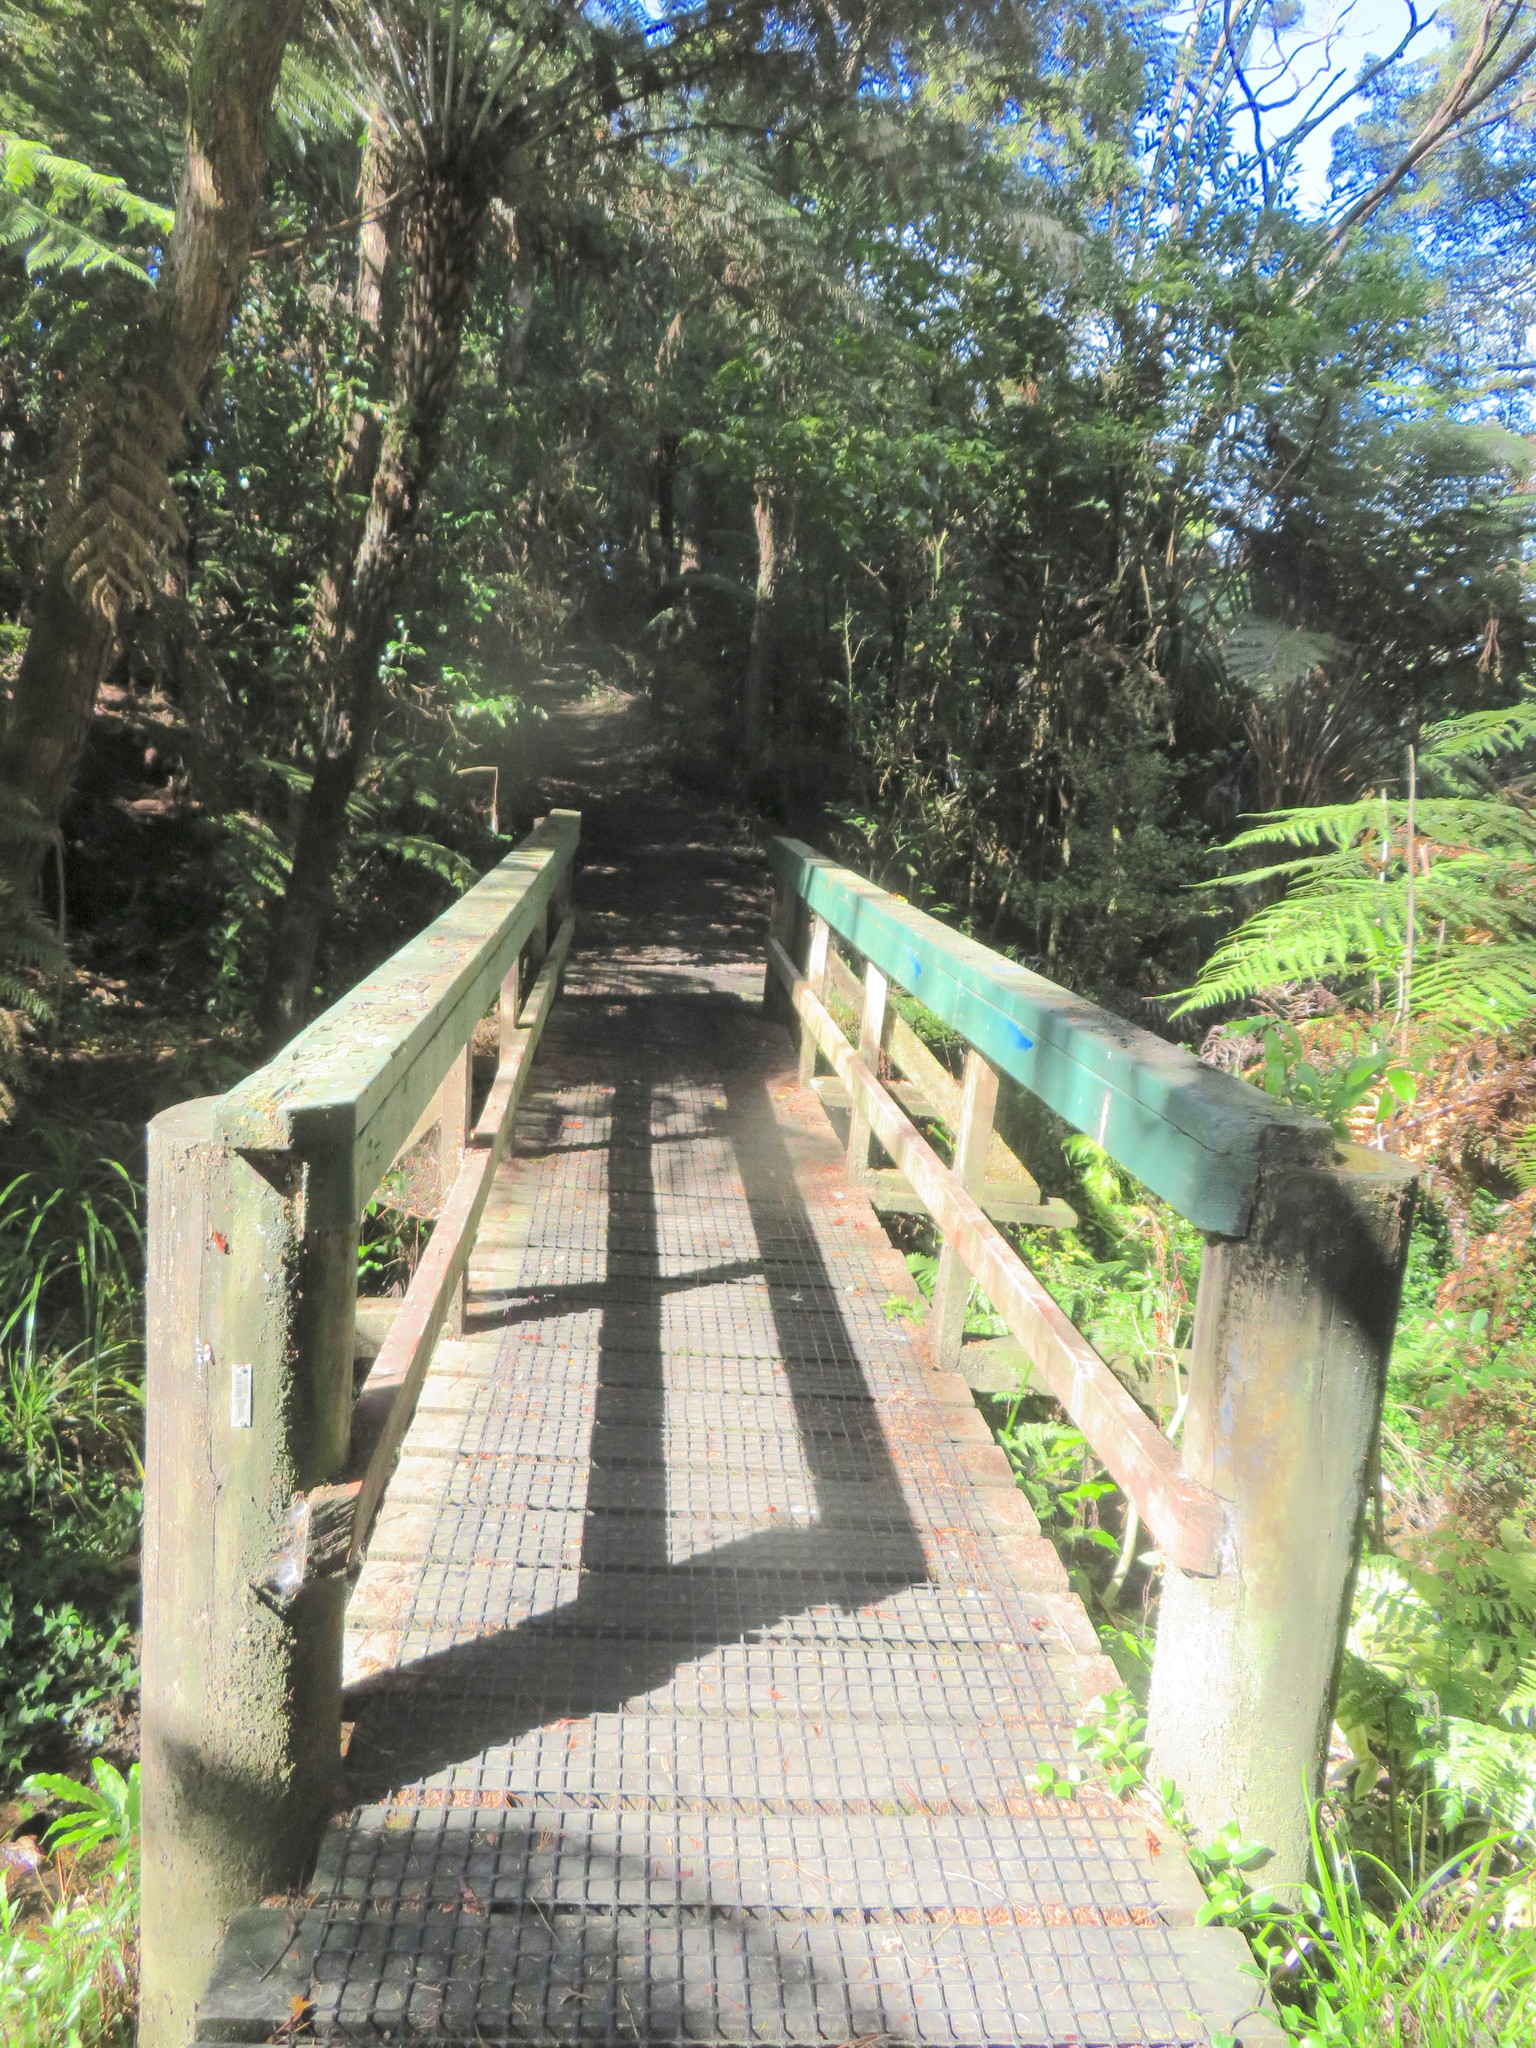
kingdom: Plantae
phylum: Tracheophyta
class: Polypodiopsida
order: Cyatheales
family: Cyatheaceae
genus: Alsophila
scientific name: Alsophila dealbata
